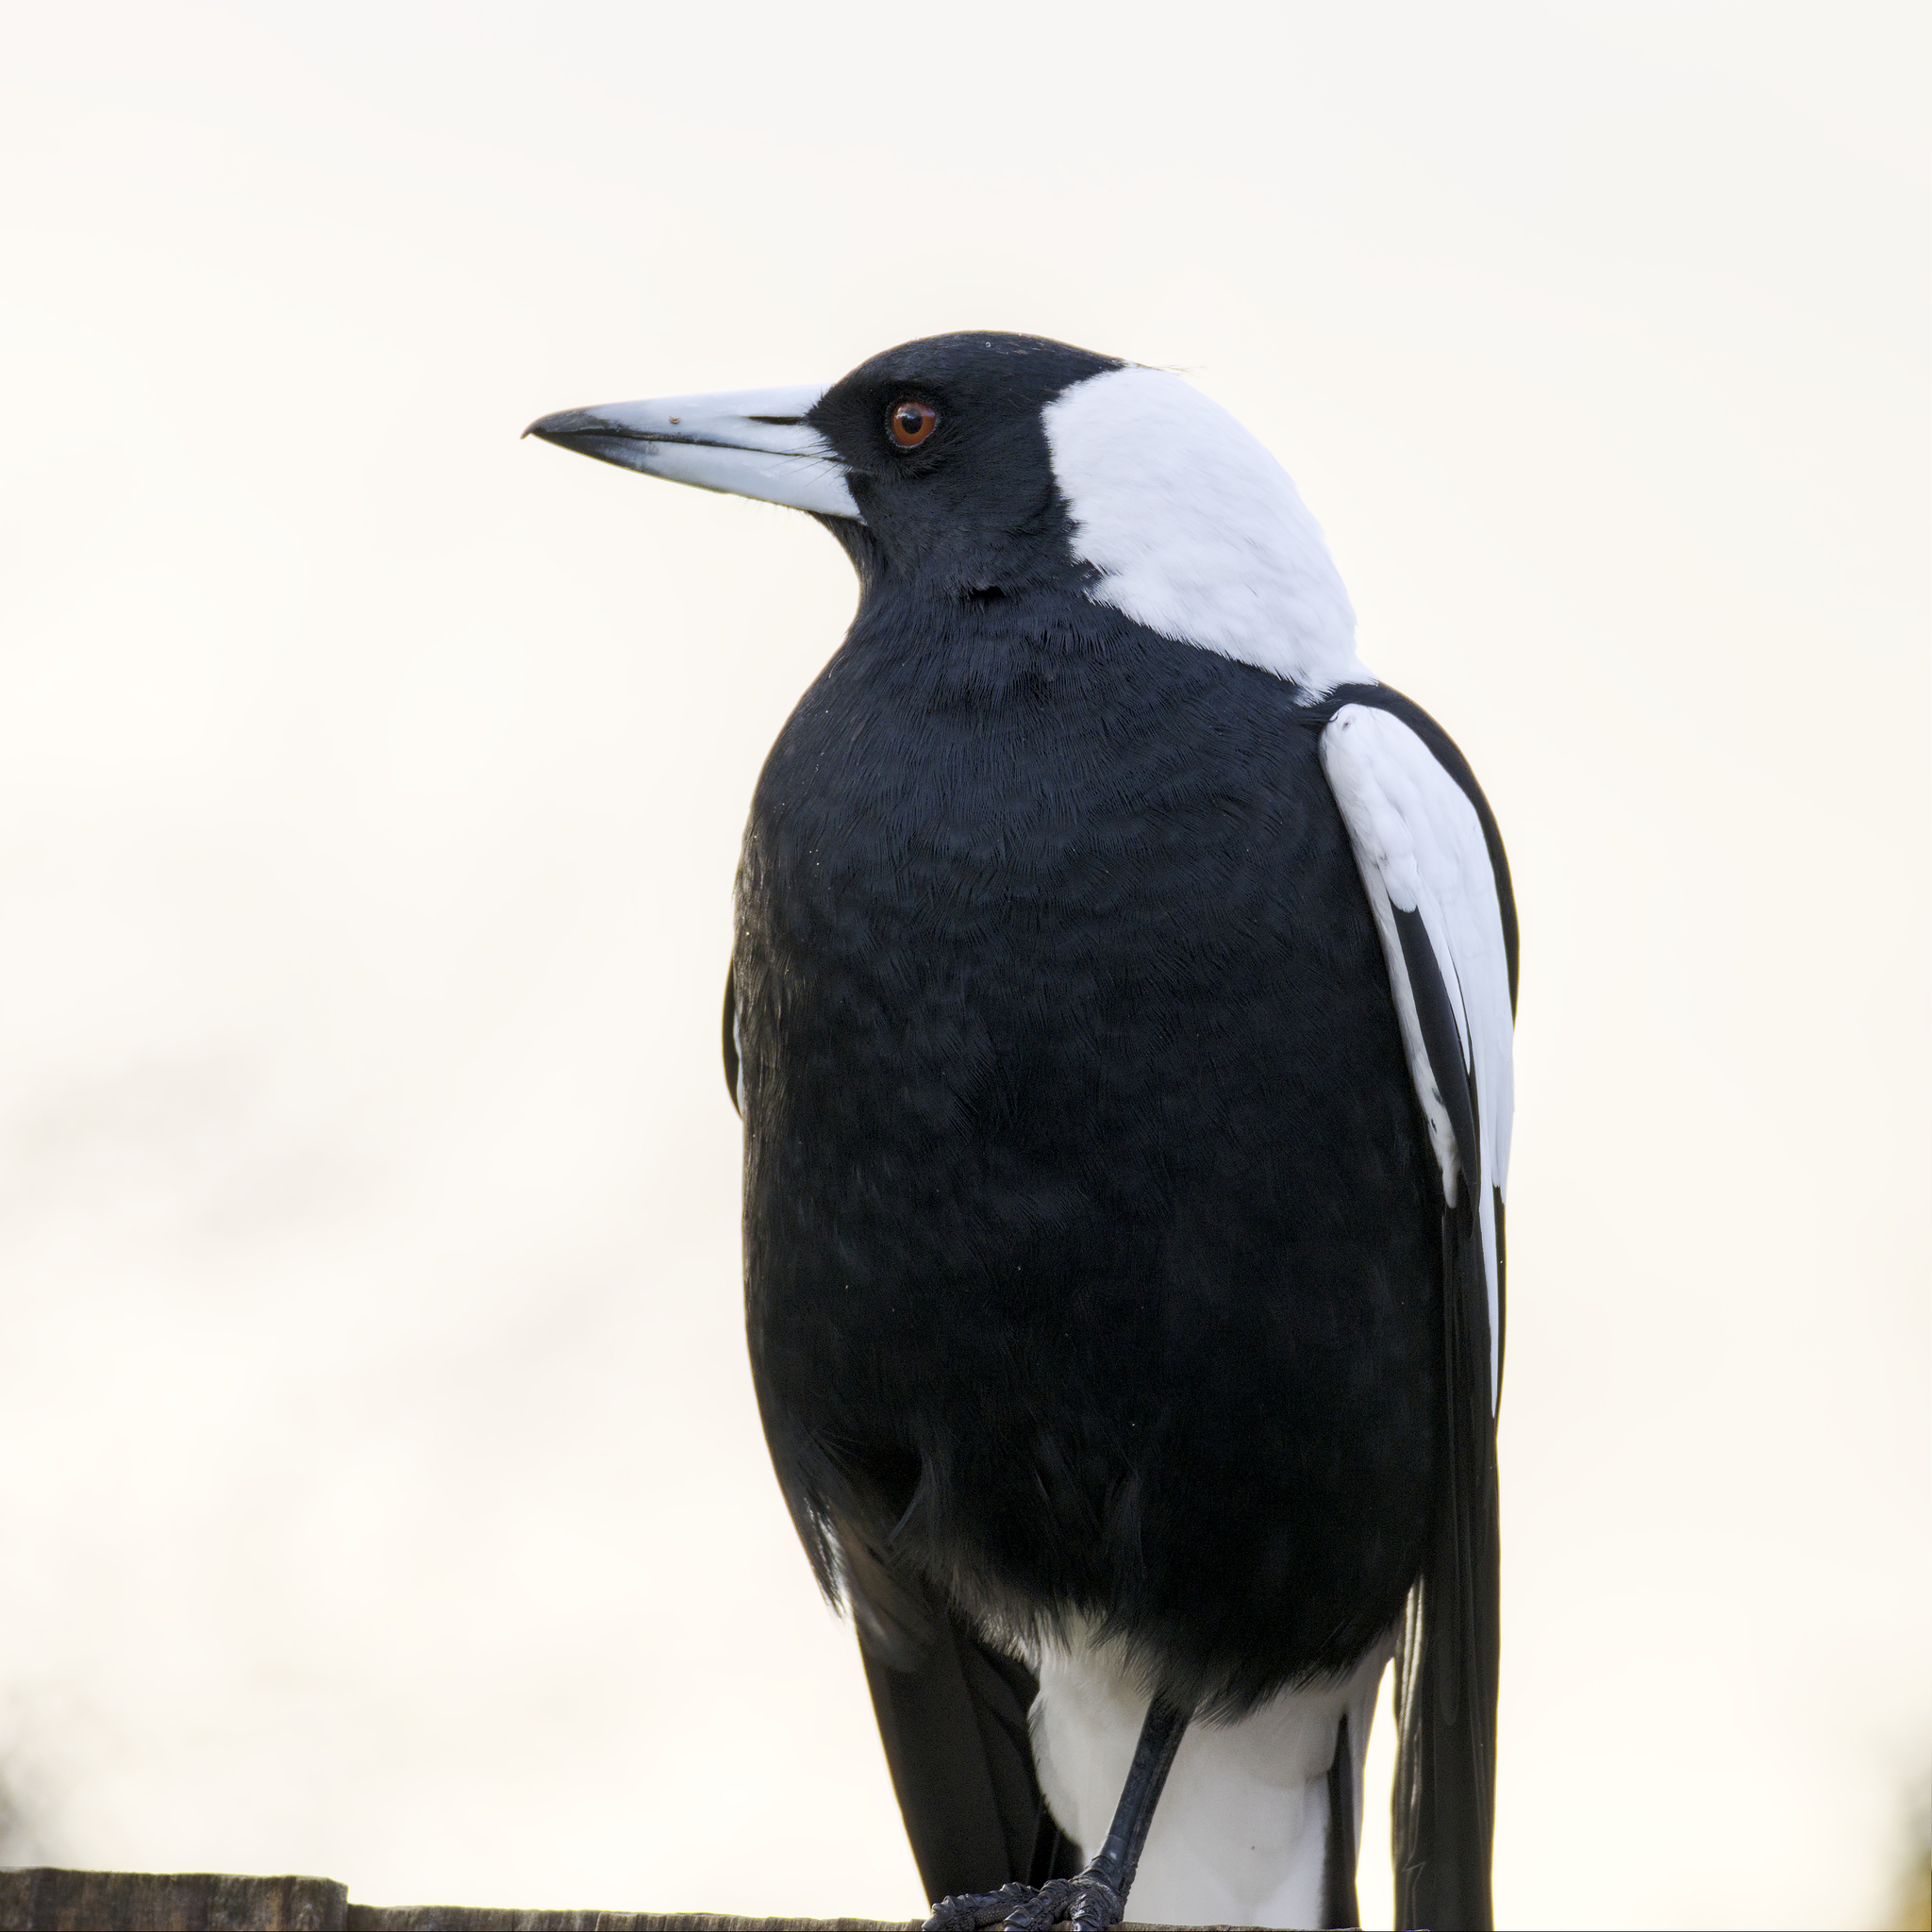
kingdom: Animalia
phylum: Chordata
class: Aves
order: Passeriformes
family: Cracticidae
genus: Gymnorhina
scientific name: Gymnorhina tibicen
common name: Australian magpie
